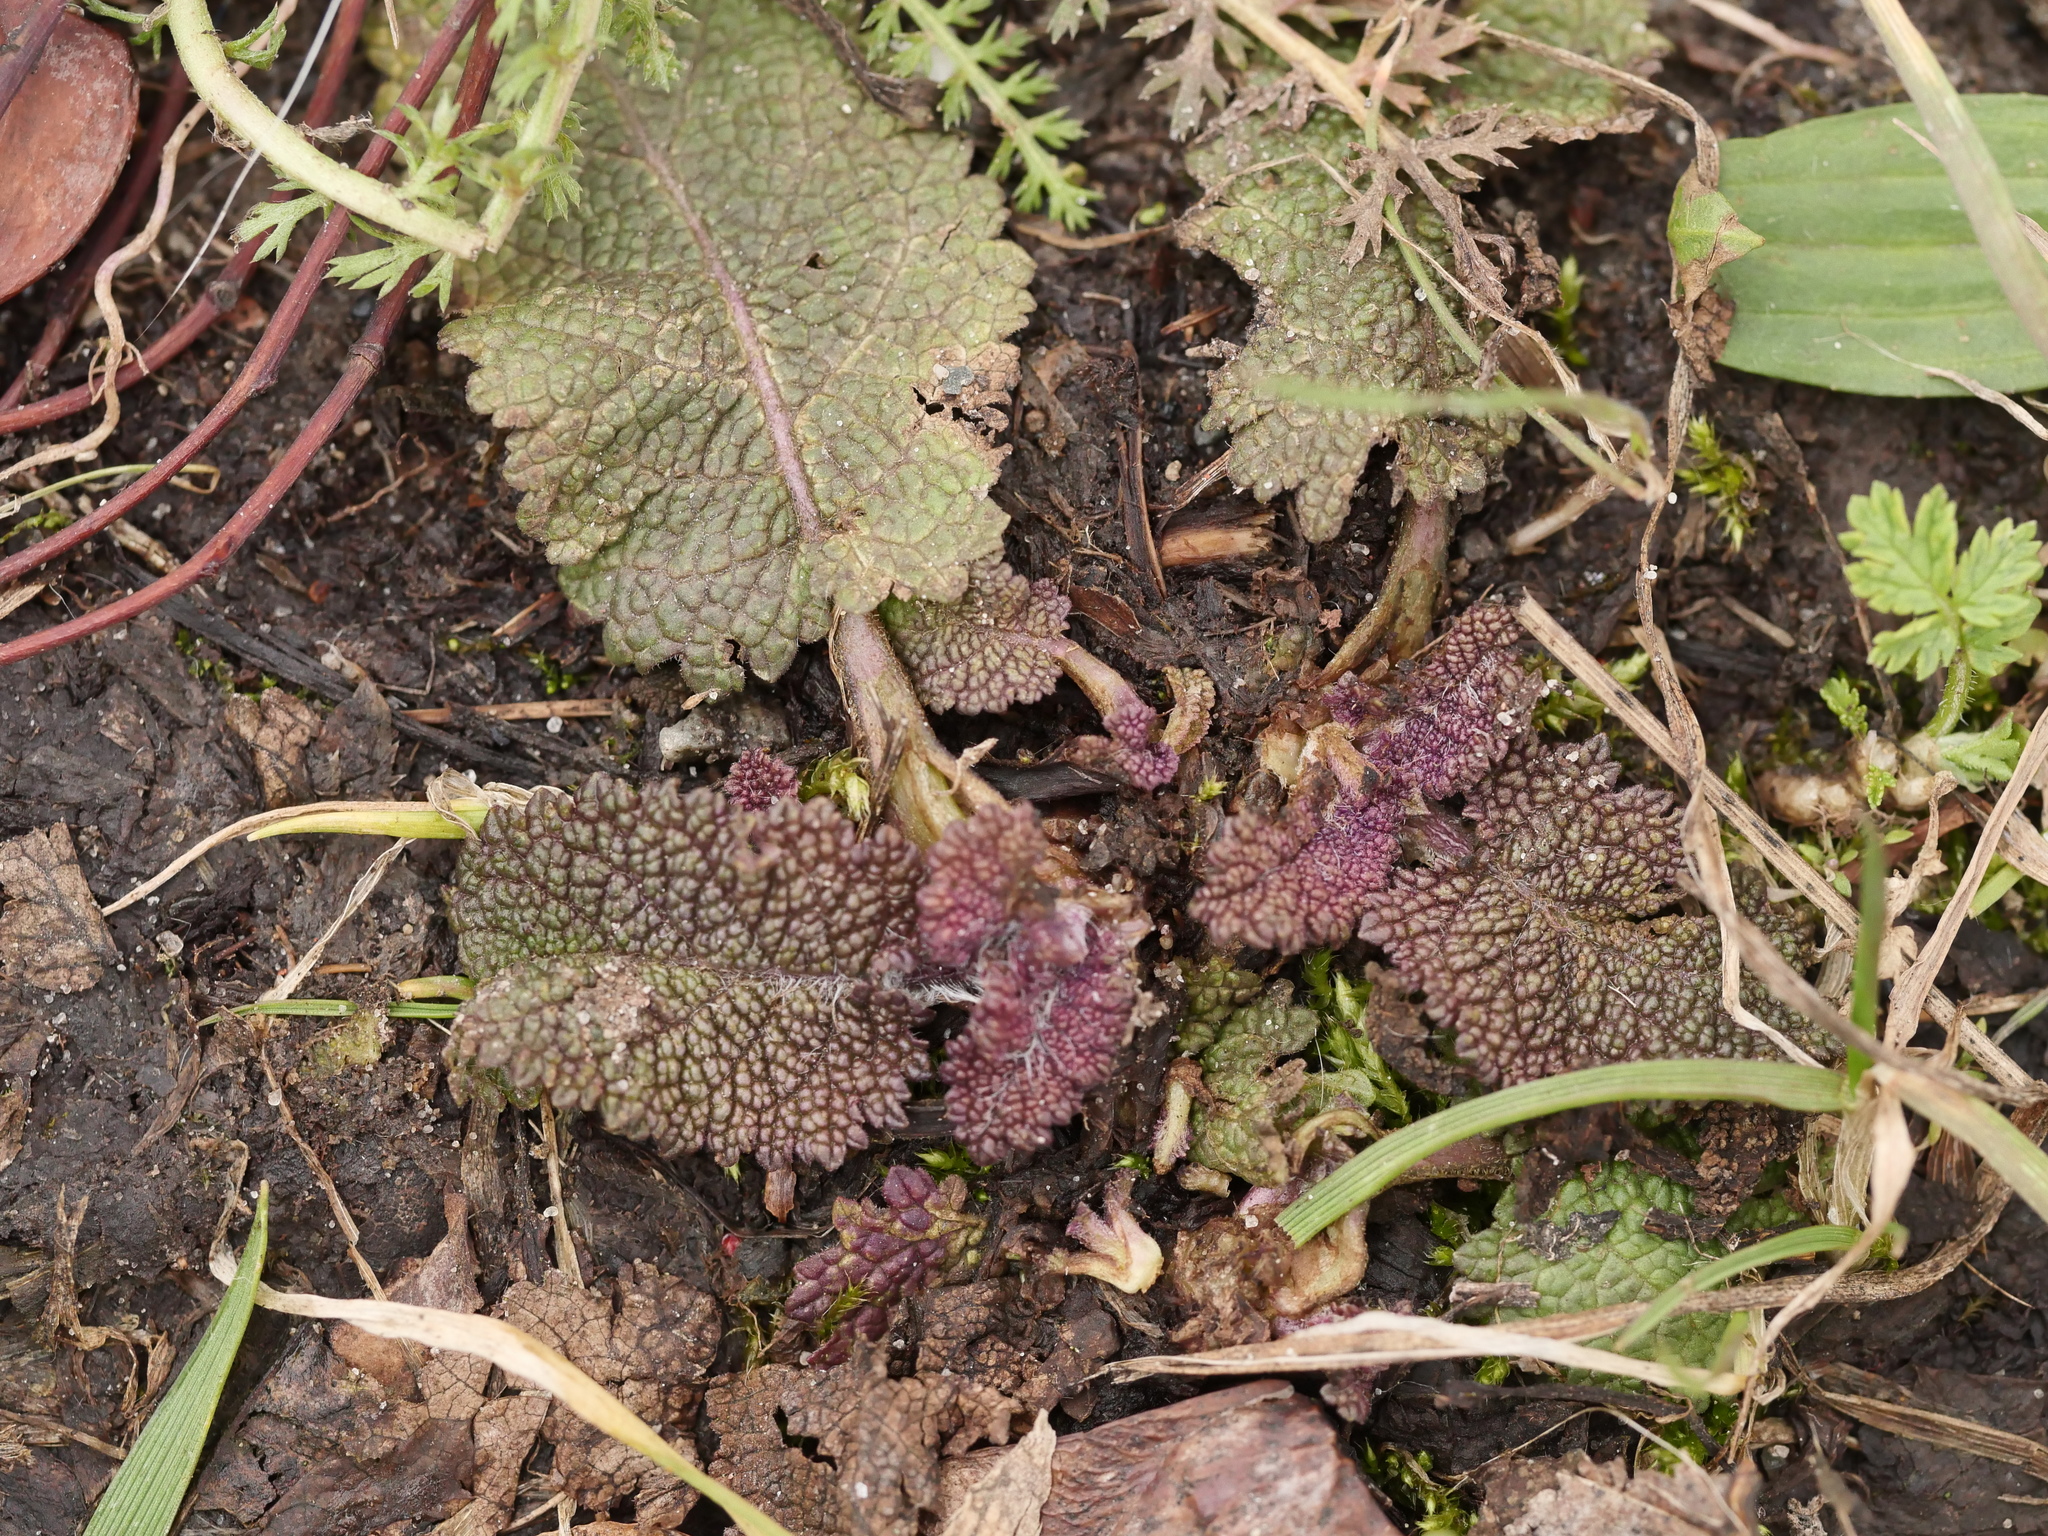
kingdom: Plantae
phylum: Tracheophyta
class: Magnoliopsida
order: Lamiales
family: Lamiaceae
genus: Salvia
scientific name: Salvia pratensis
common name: Meadow sage
